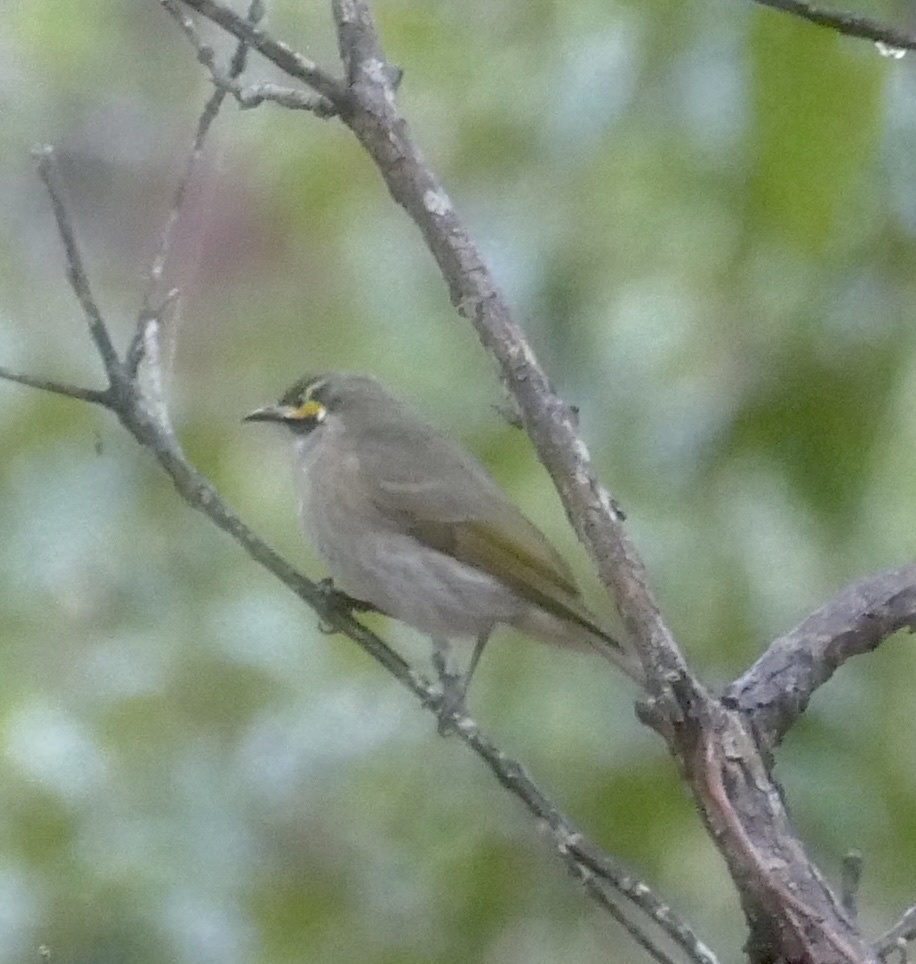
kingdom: Animalia
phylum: Chordata
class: Aves
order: Passeriformes
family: Meliphagidae
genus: Caligavis
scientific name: Caligavis chrysops
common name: Yellow-faced honeyeater
